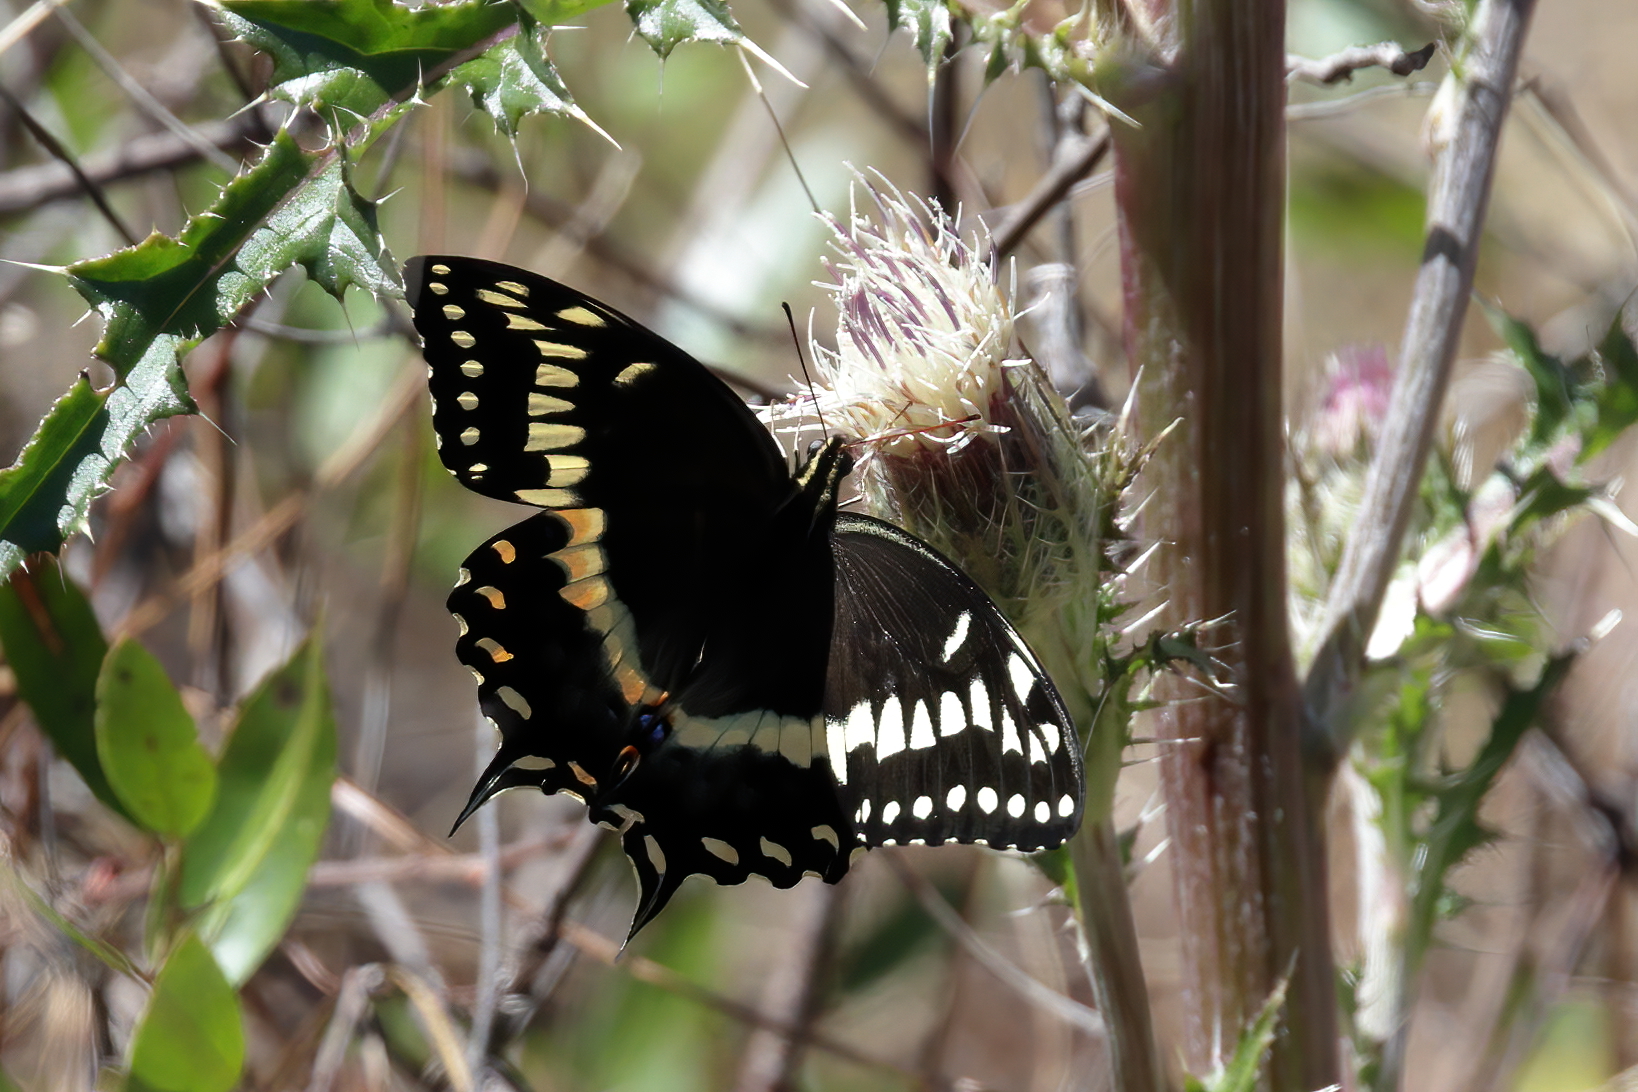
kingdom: Animalia
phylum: Arthropoda
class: Insecta
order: Lepidoptera
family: Papilionidae
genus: Papilio
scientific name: Papilio palamedes
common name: Palamedes swallowtail
